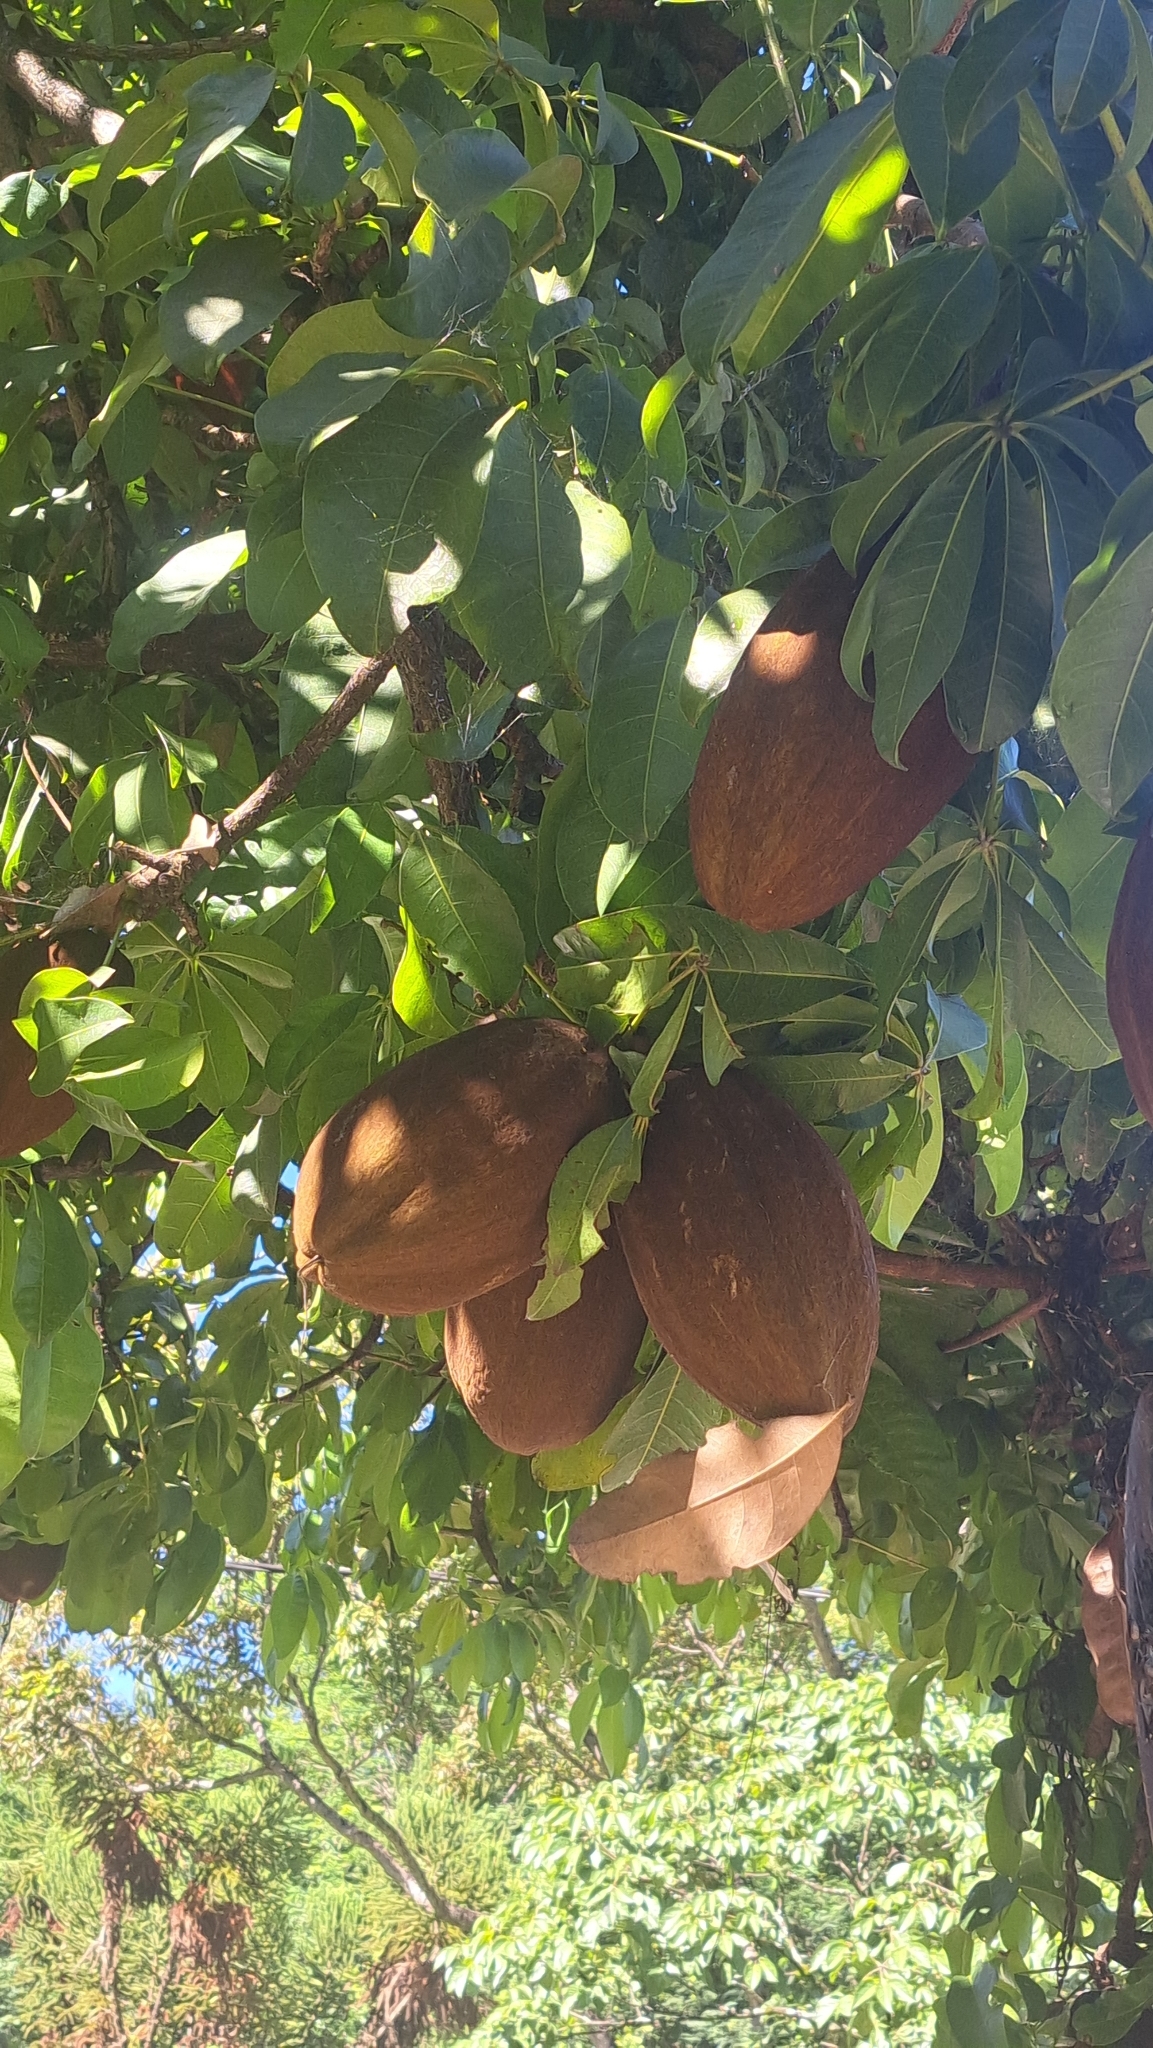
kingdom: Plantae
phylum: Tracheophyta
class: Magnoliopsida
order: Malvales
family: Malvaceae
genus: Pachira
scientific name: Pachira aquatica
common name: Provision-tree
